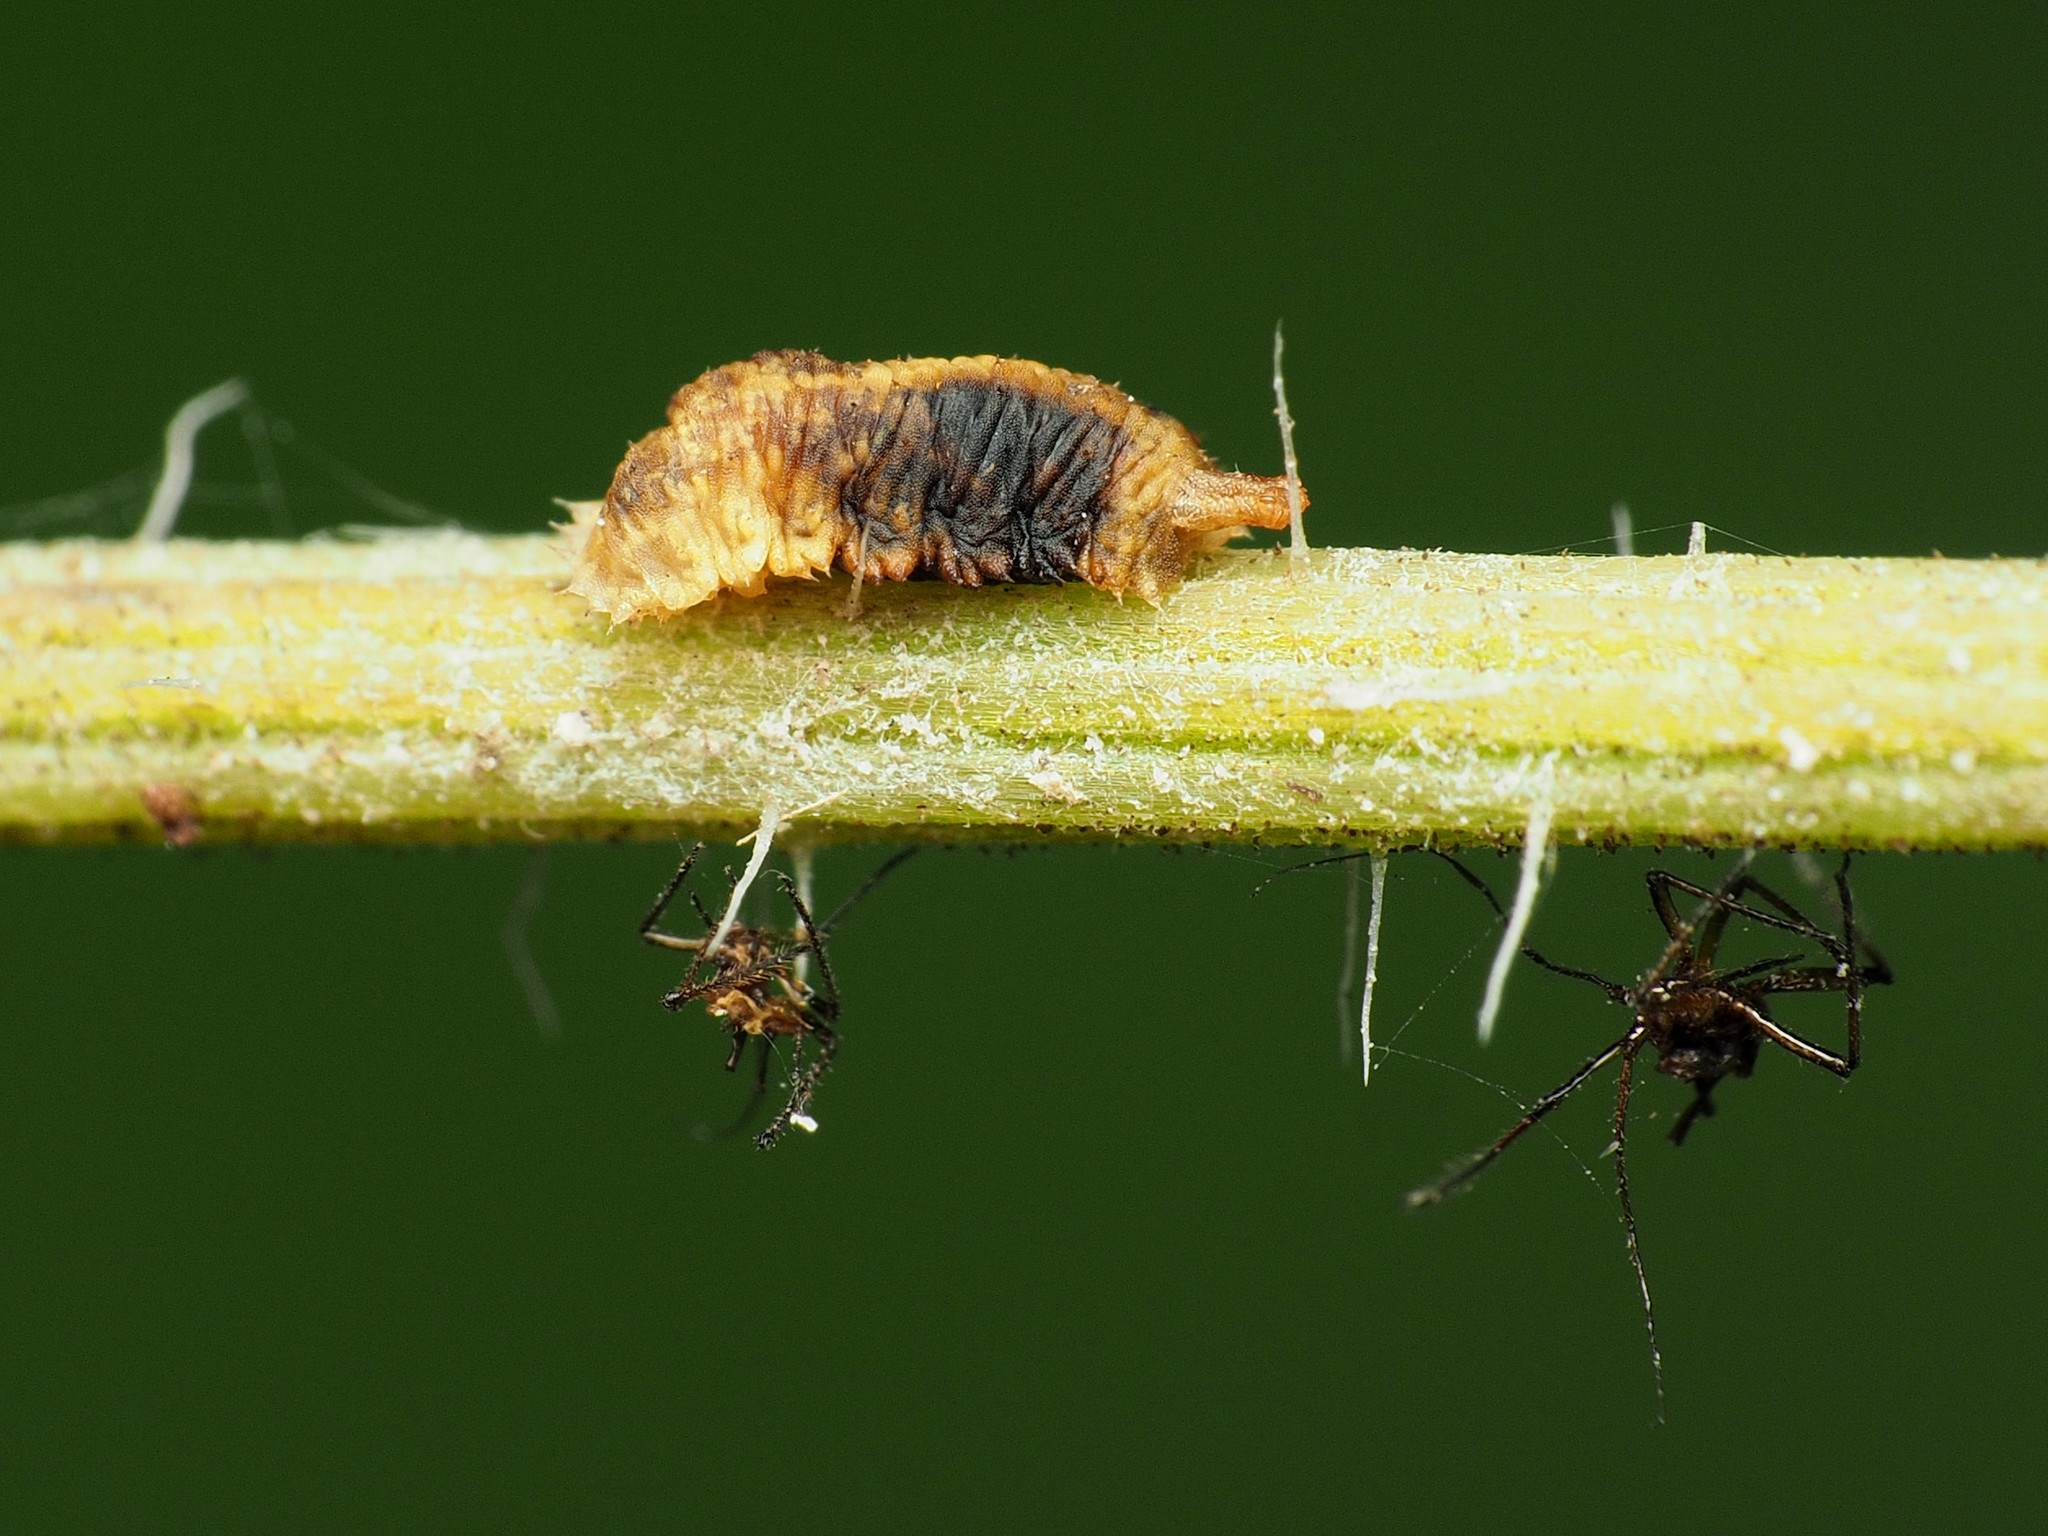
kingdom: Animalia
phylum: Arthropoda
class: Insecta
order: Diptera
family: Syrphidae
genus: Epistrophella
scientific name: Epistrophella emarginata
